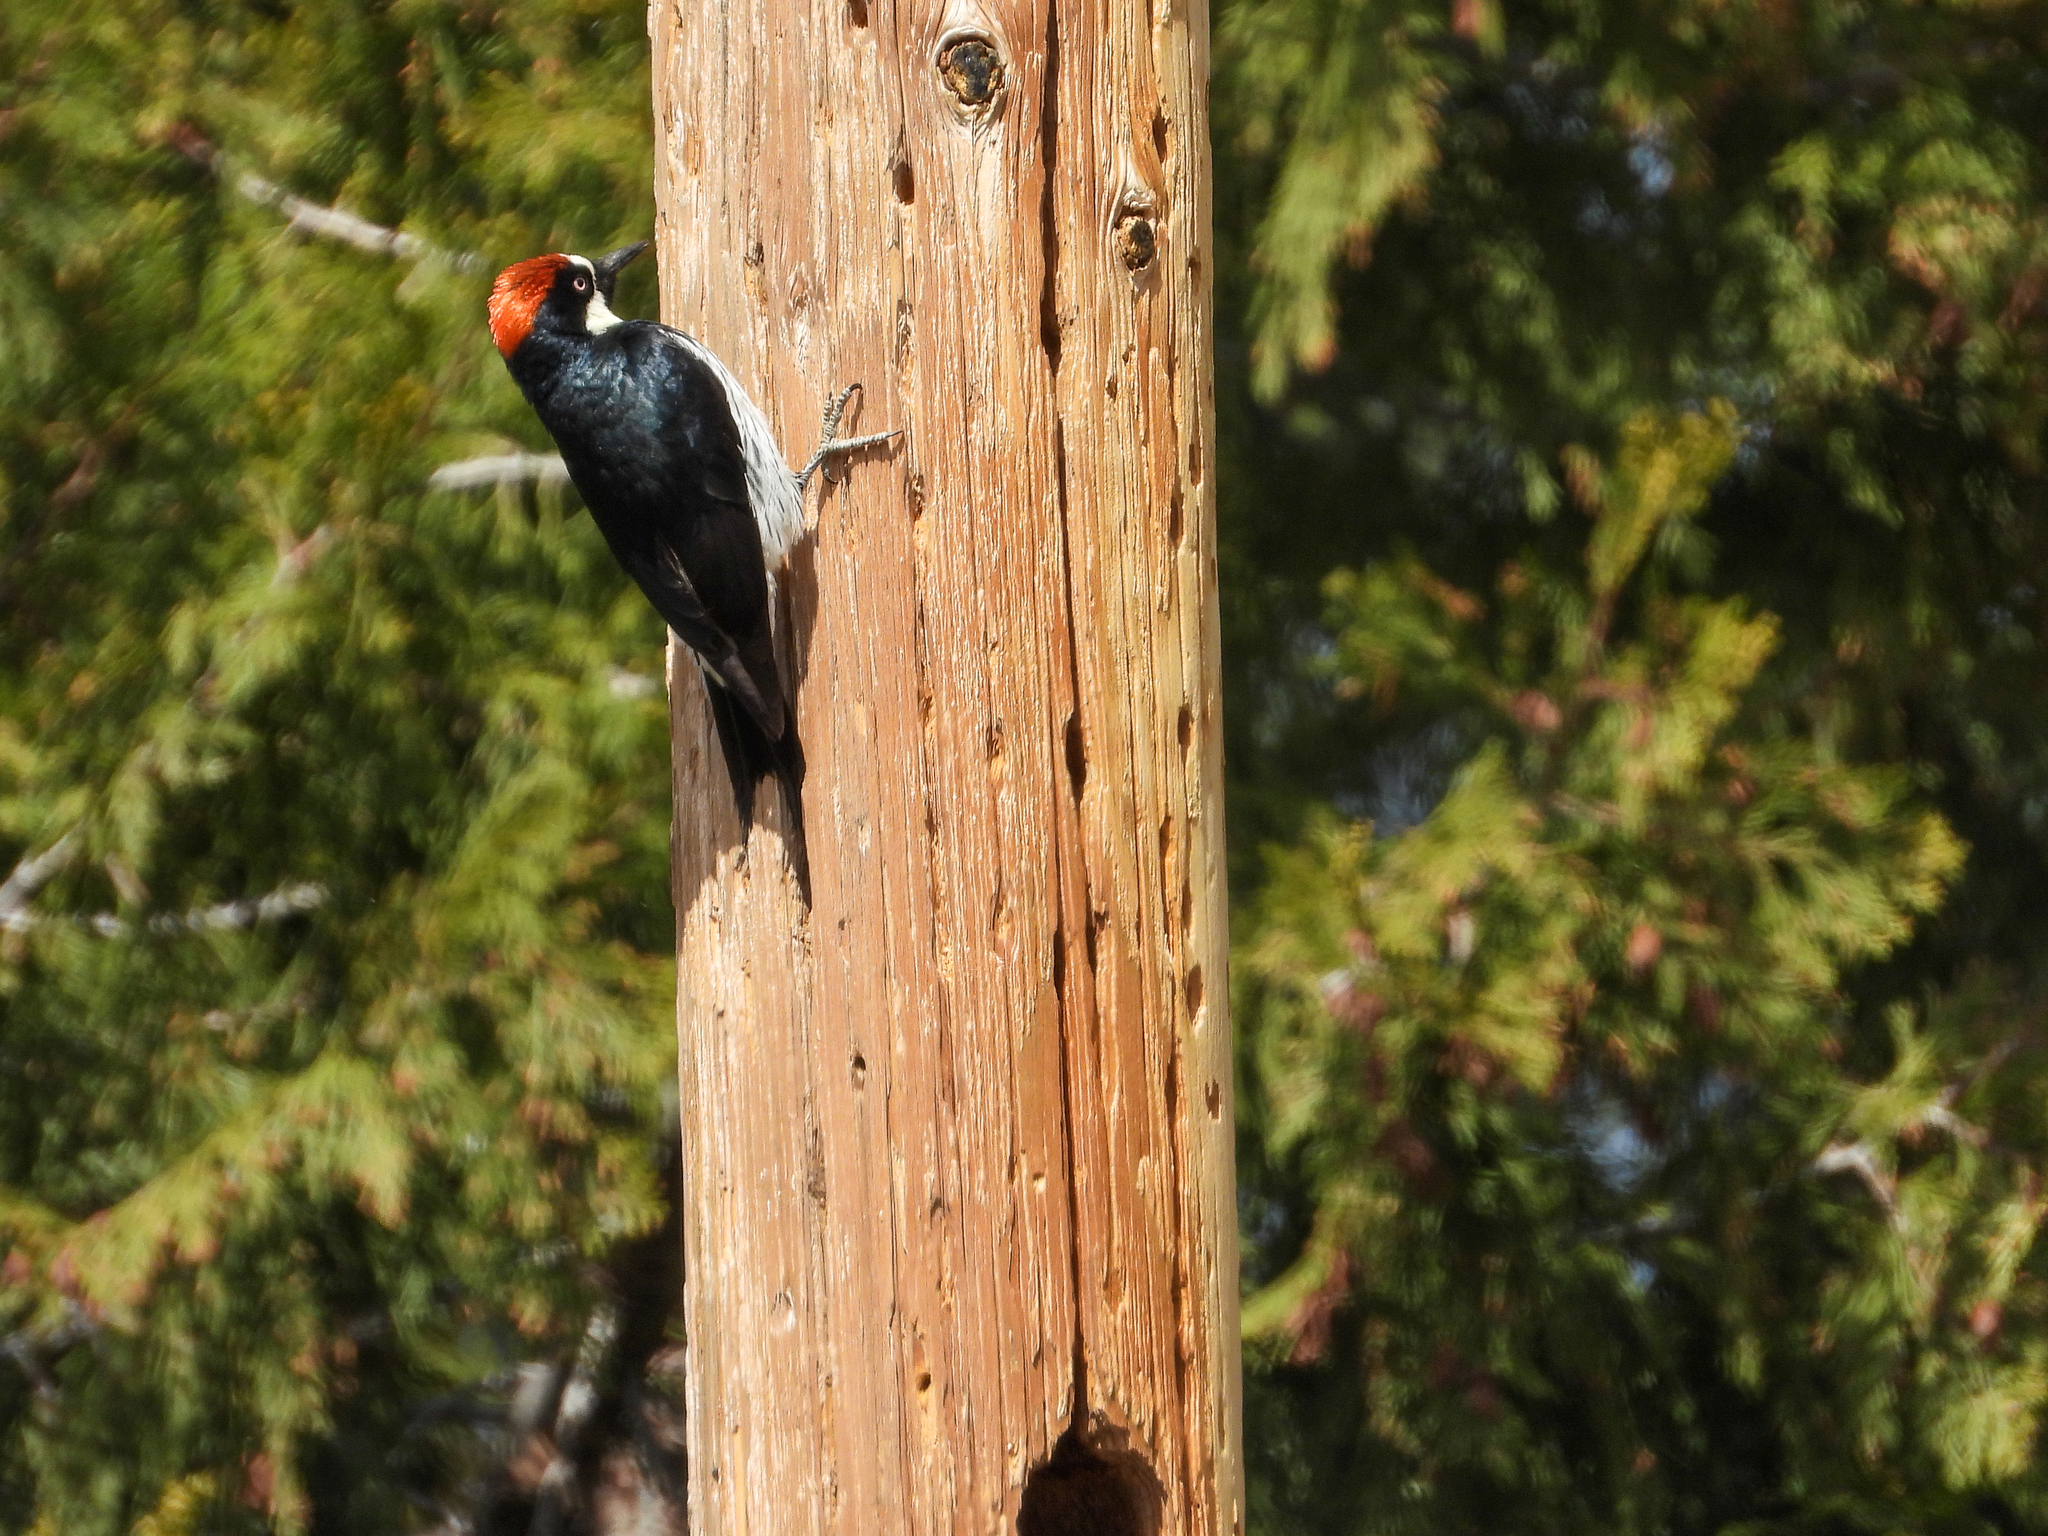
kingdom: Animalia
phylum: Chordata
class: Aves
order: Piciformes
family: Picidae
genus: Melanerpes
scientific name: Melanerpes formicivorus
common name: Acorn woodpecker
